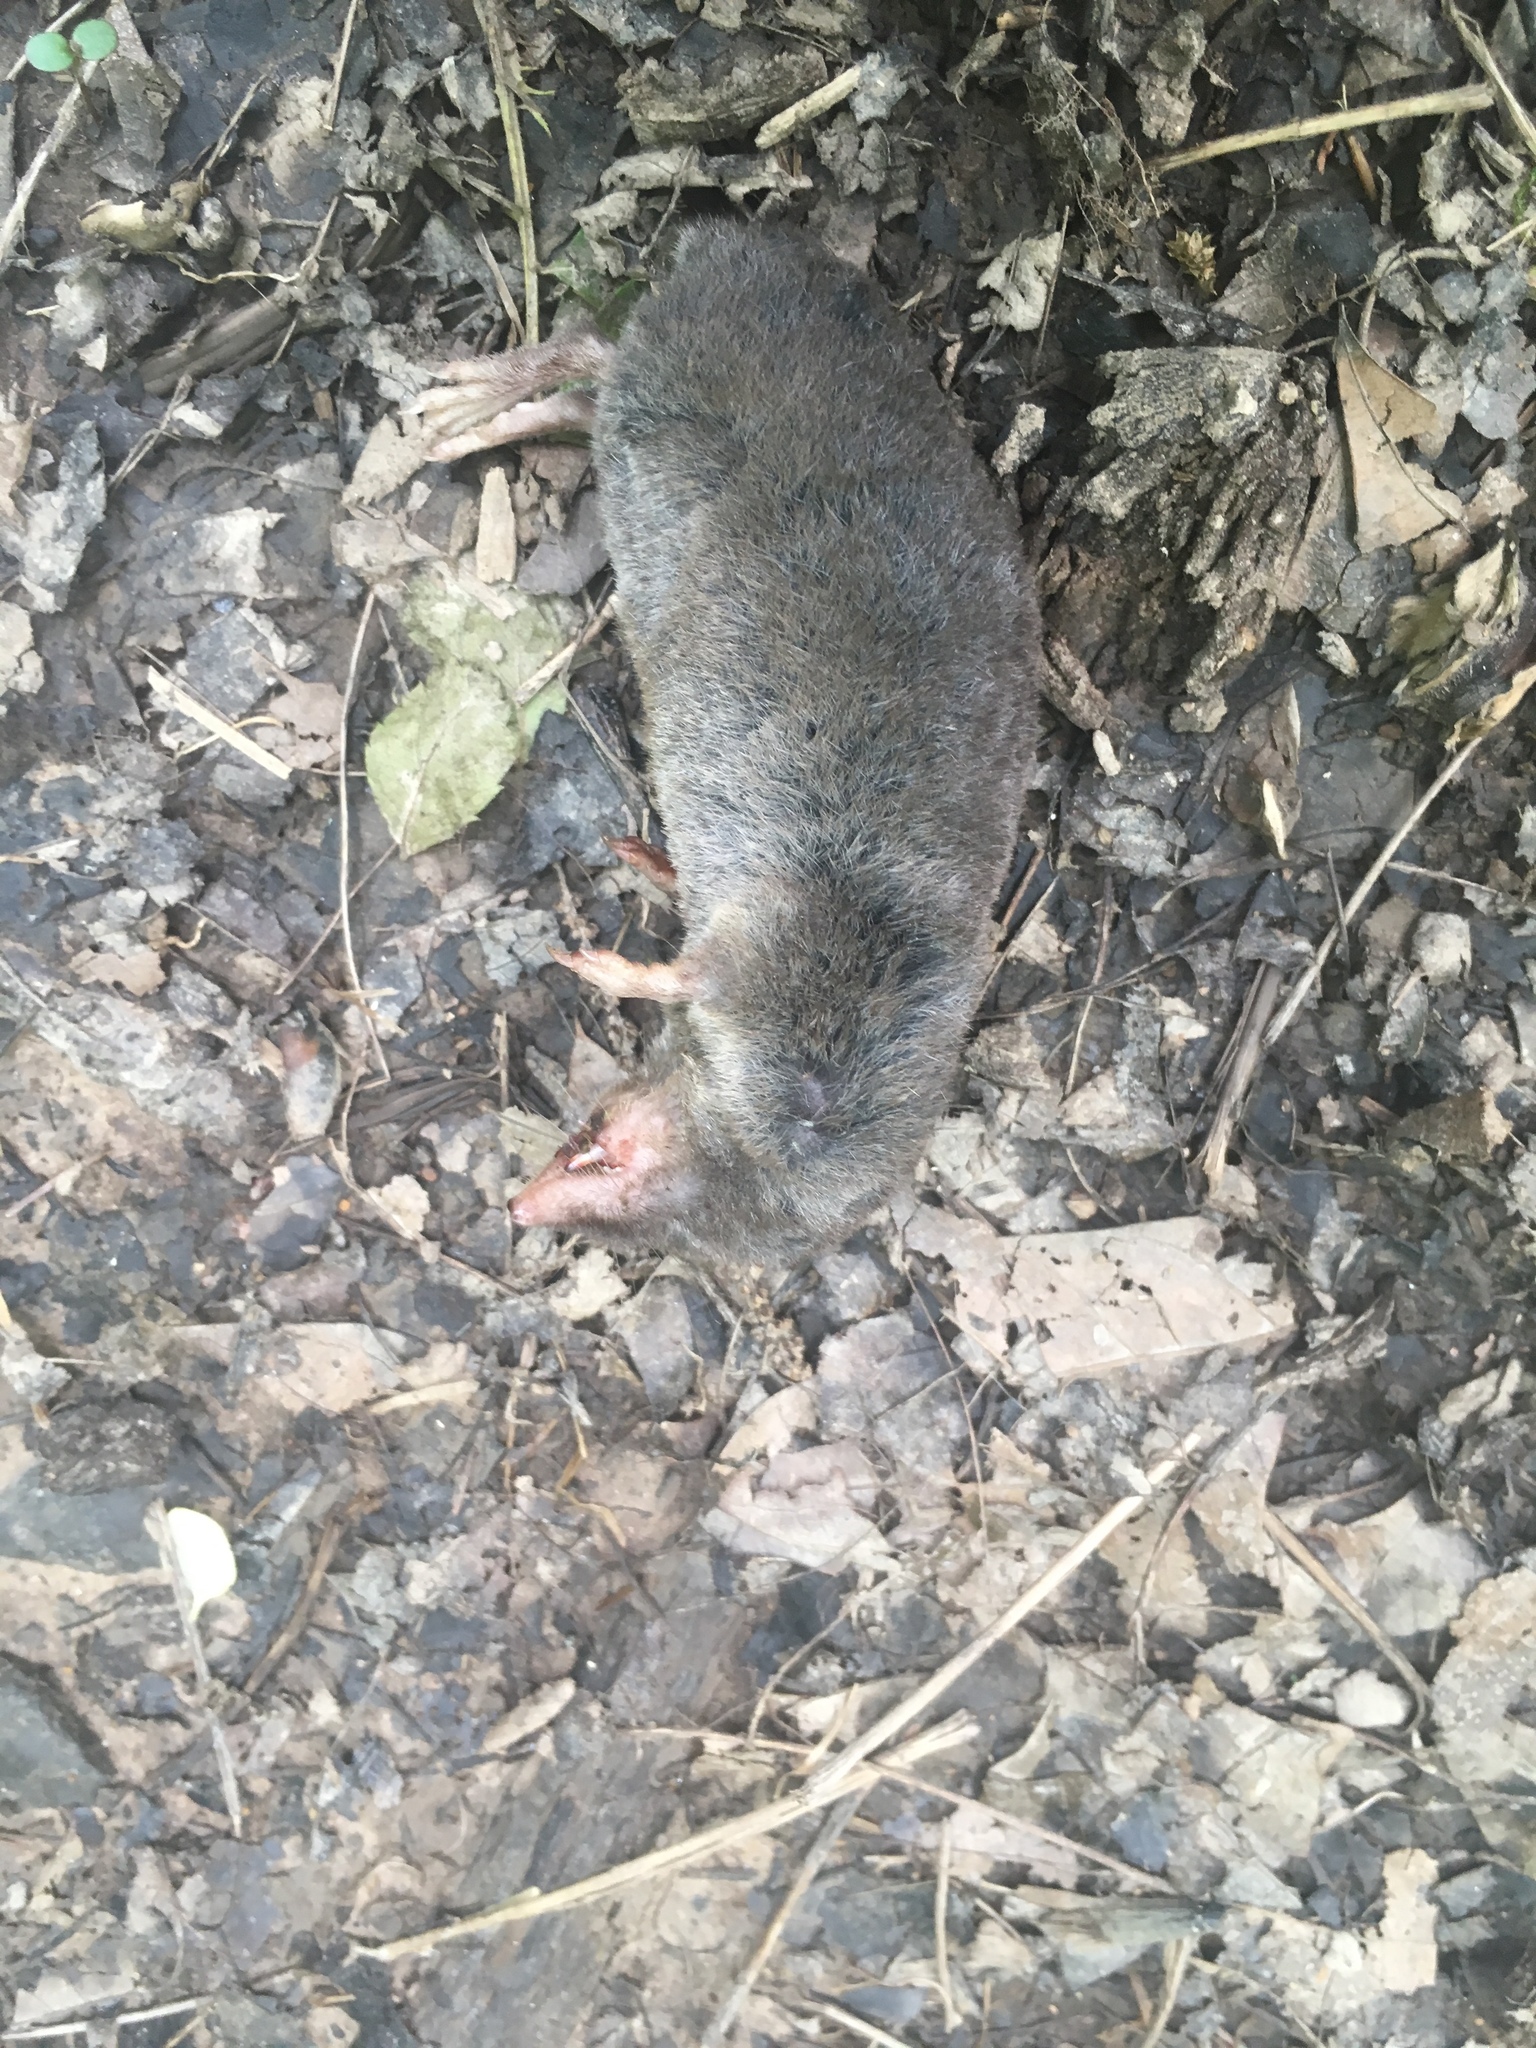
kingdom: Animalia
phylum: Chordata
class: Mammalia
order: Soricomorpha
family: Soricidae
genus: Blarina
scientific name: Blarina brevicauda
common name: Northern short-tailed shrew
